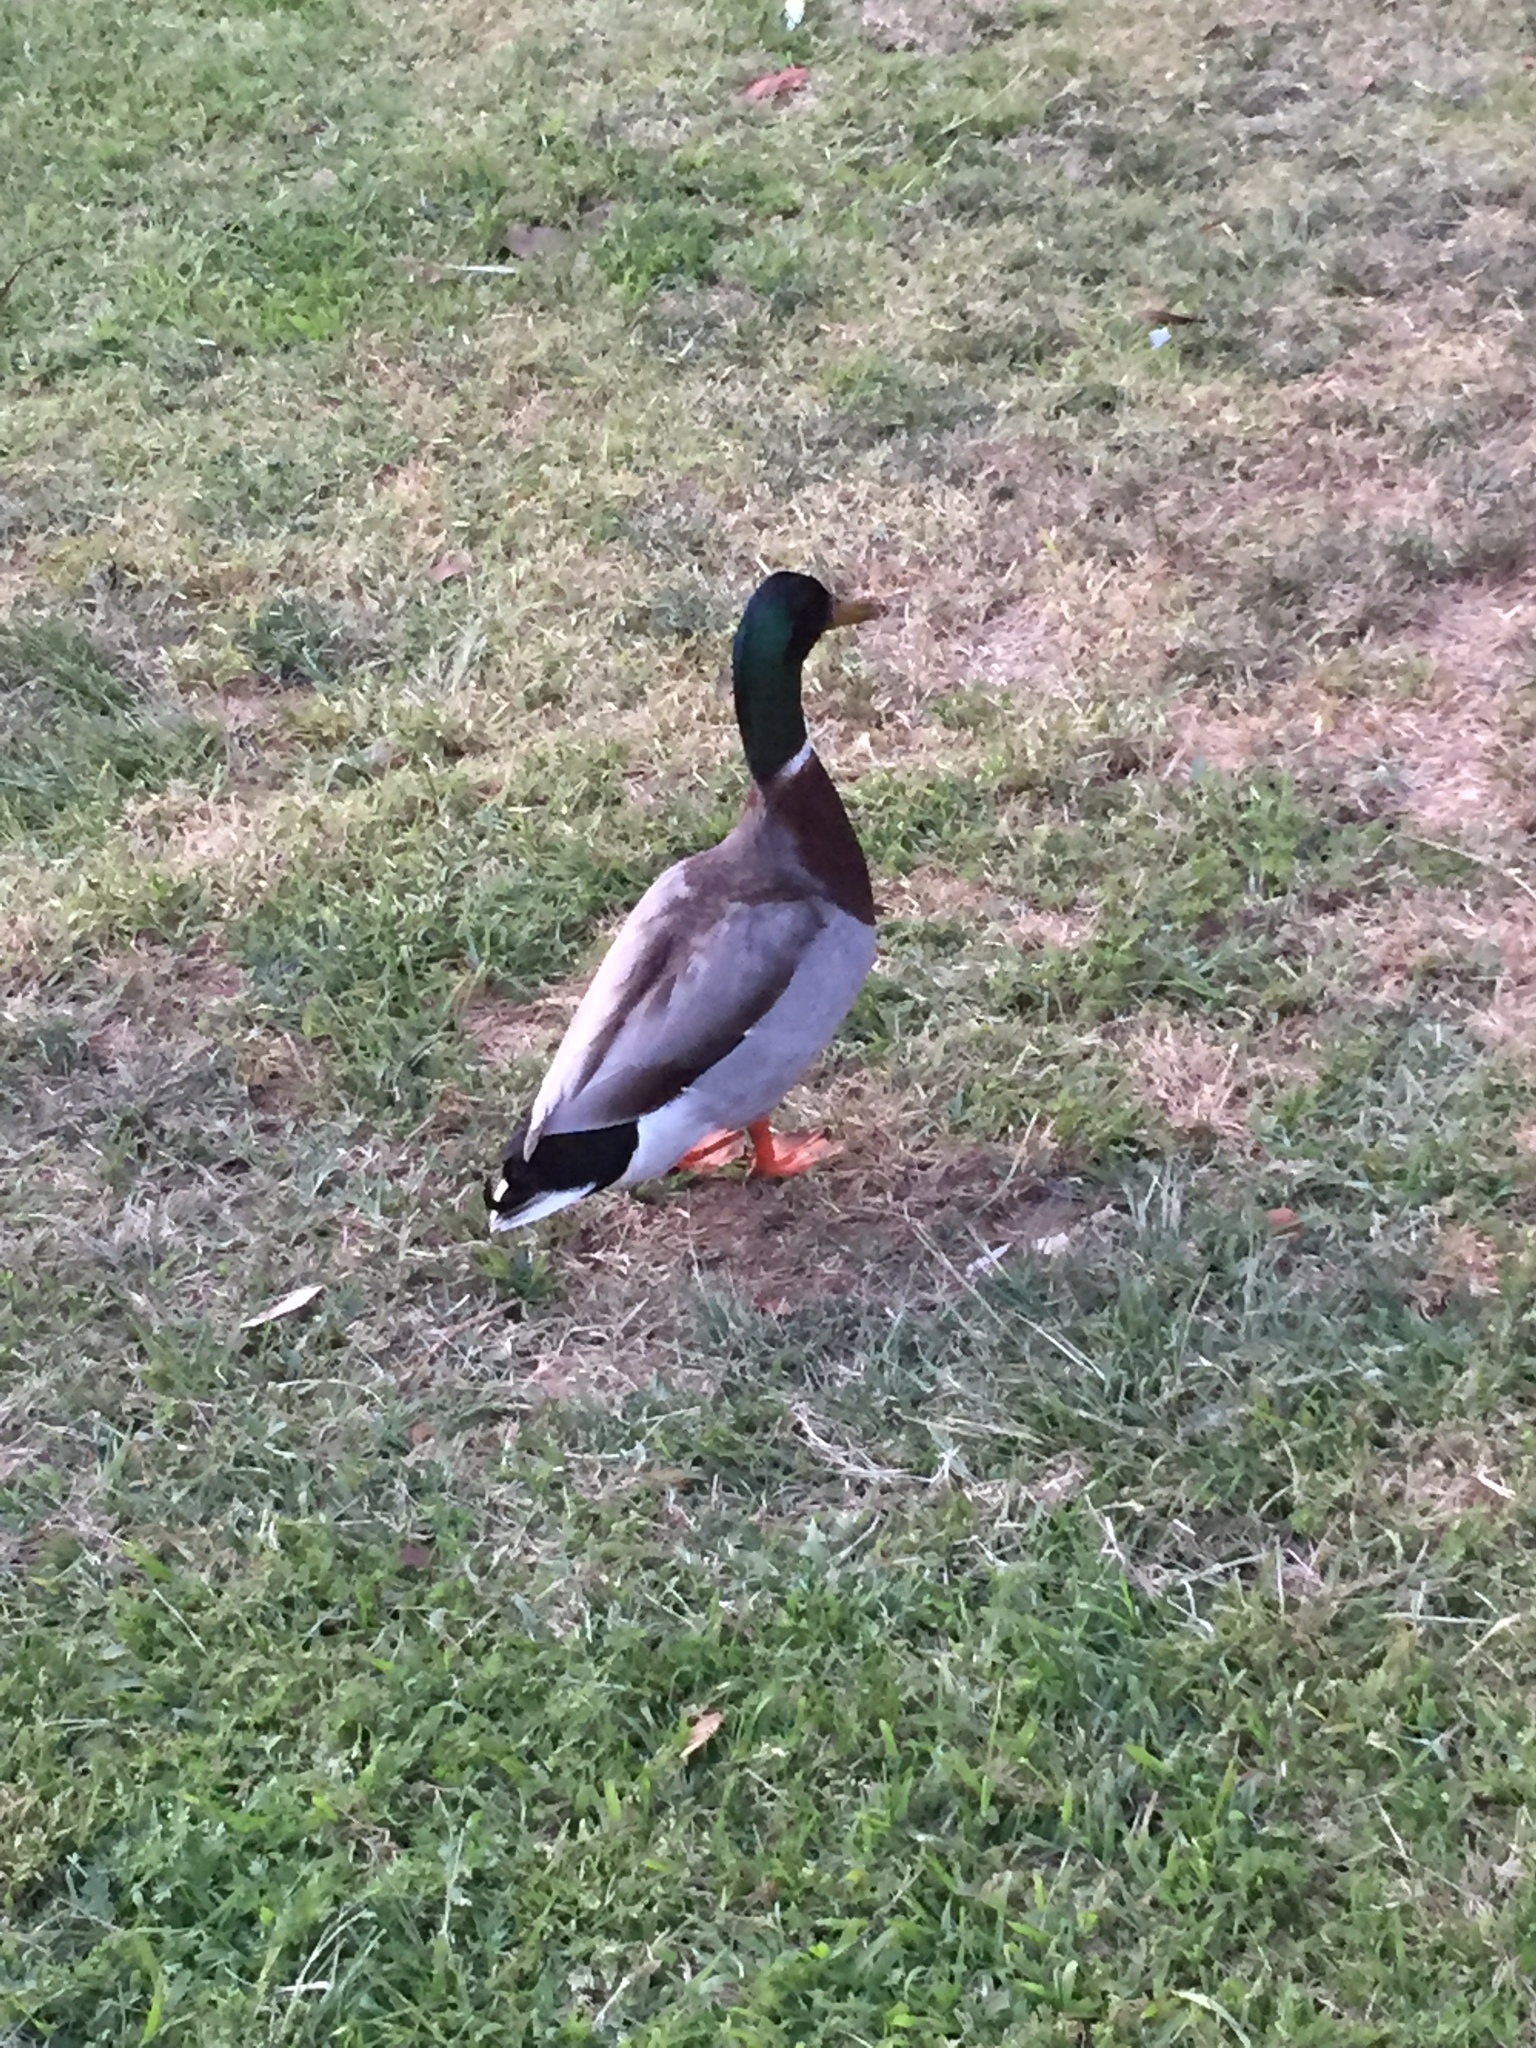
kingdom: Animalia
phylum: Chordata
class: Aves
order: Anseriformes
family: Anatidae
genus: Anas
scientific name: Anas platyrhynchos
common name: Mallard
